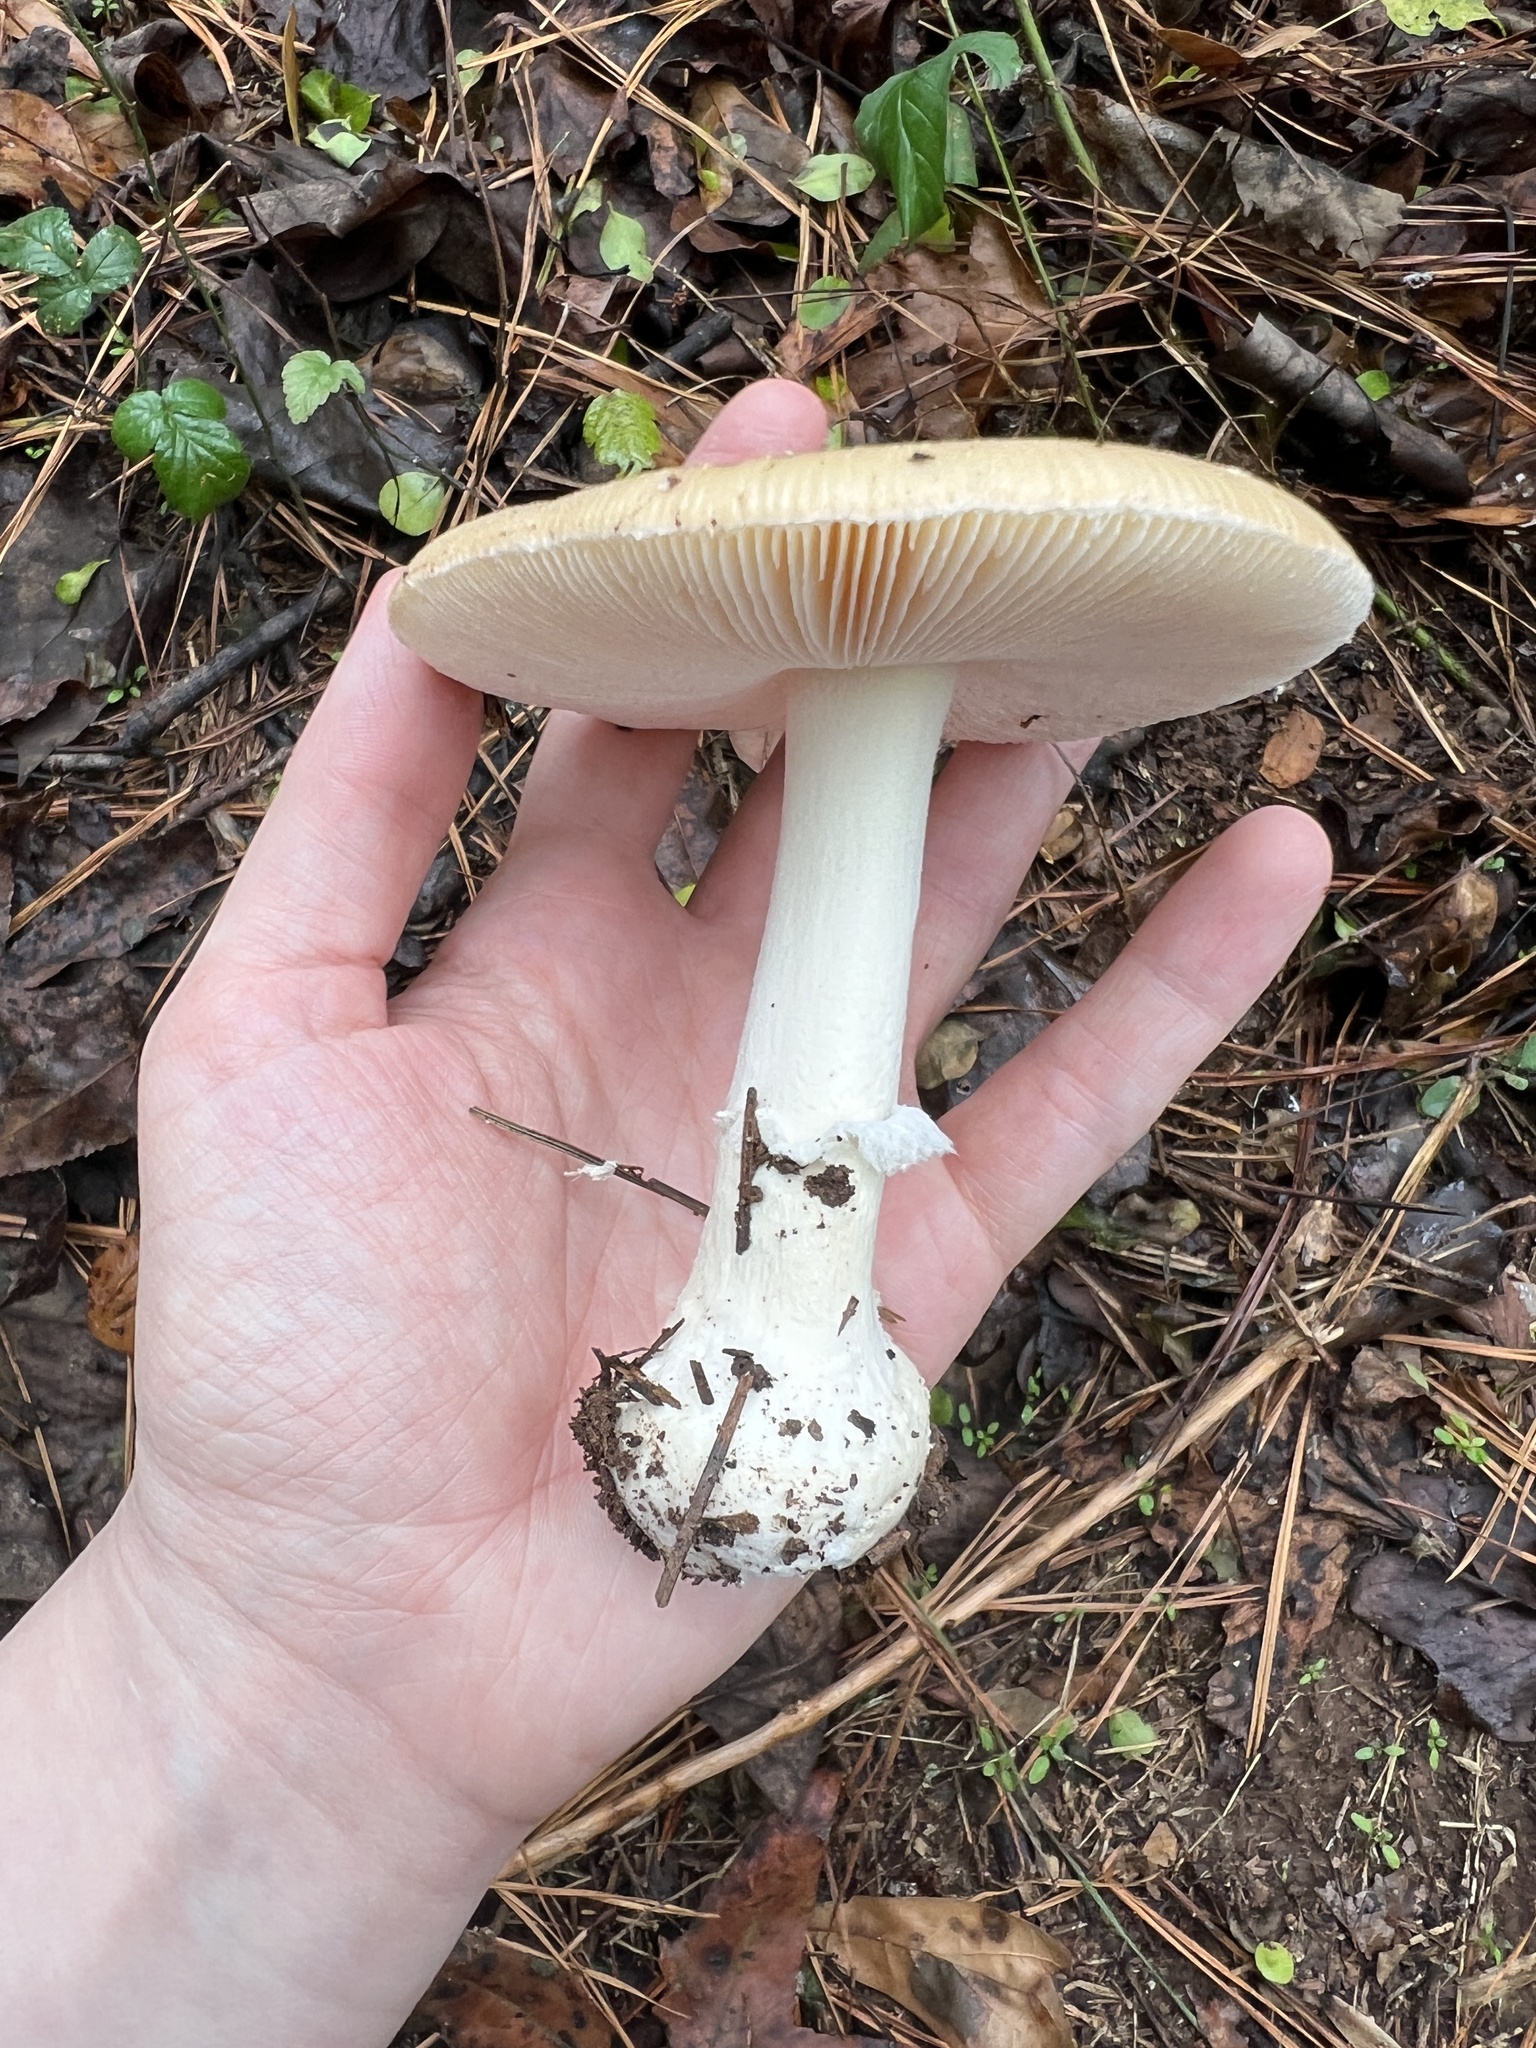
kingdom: Fungi
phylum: Basidiomycota
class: Agaricomycetes
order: Agaricales
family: Amanitaceae
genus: Amanita
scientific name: Amanita crenulata
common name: Poison champagne amanita
